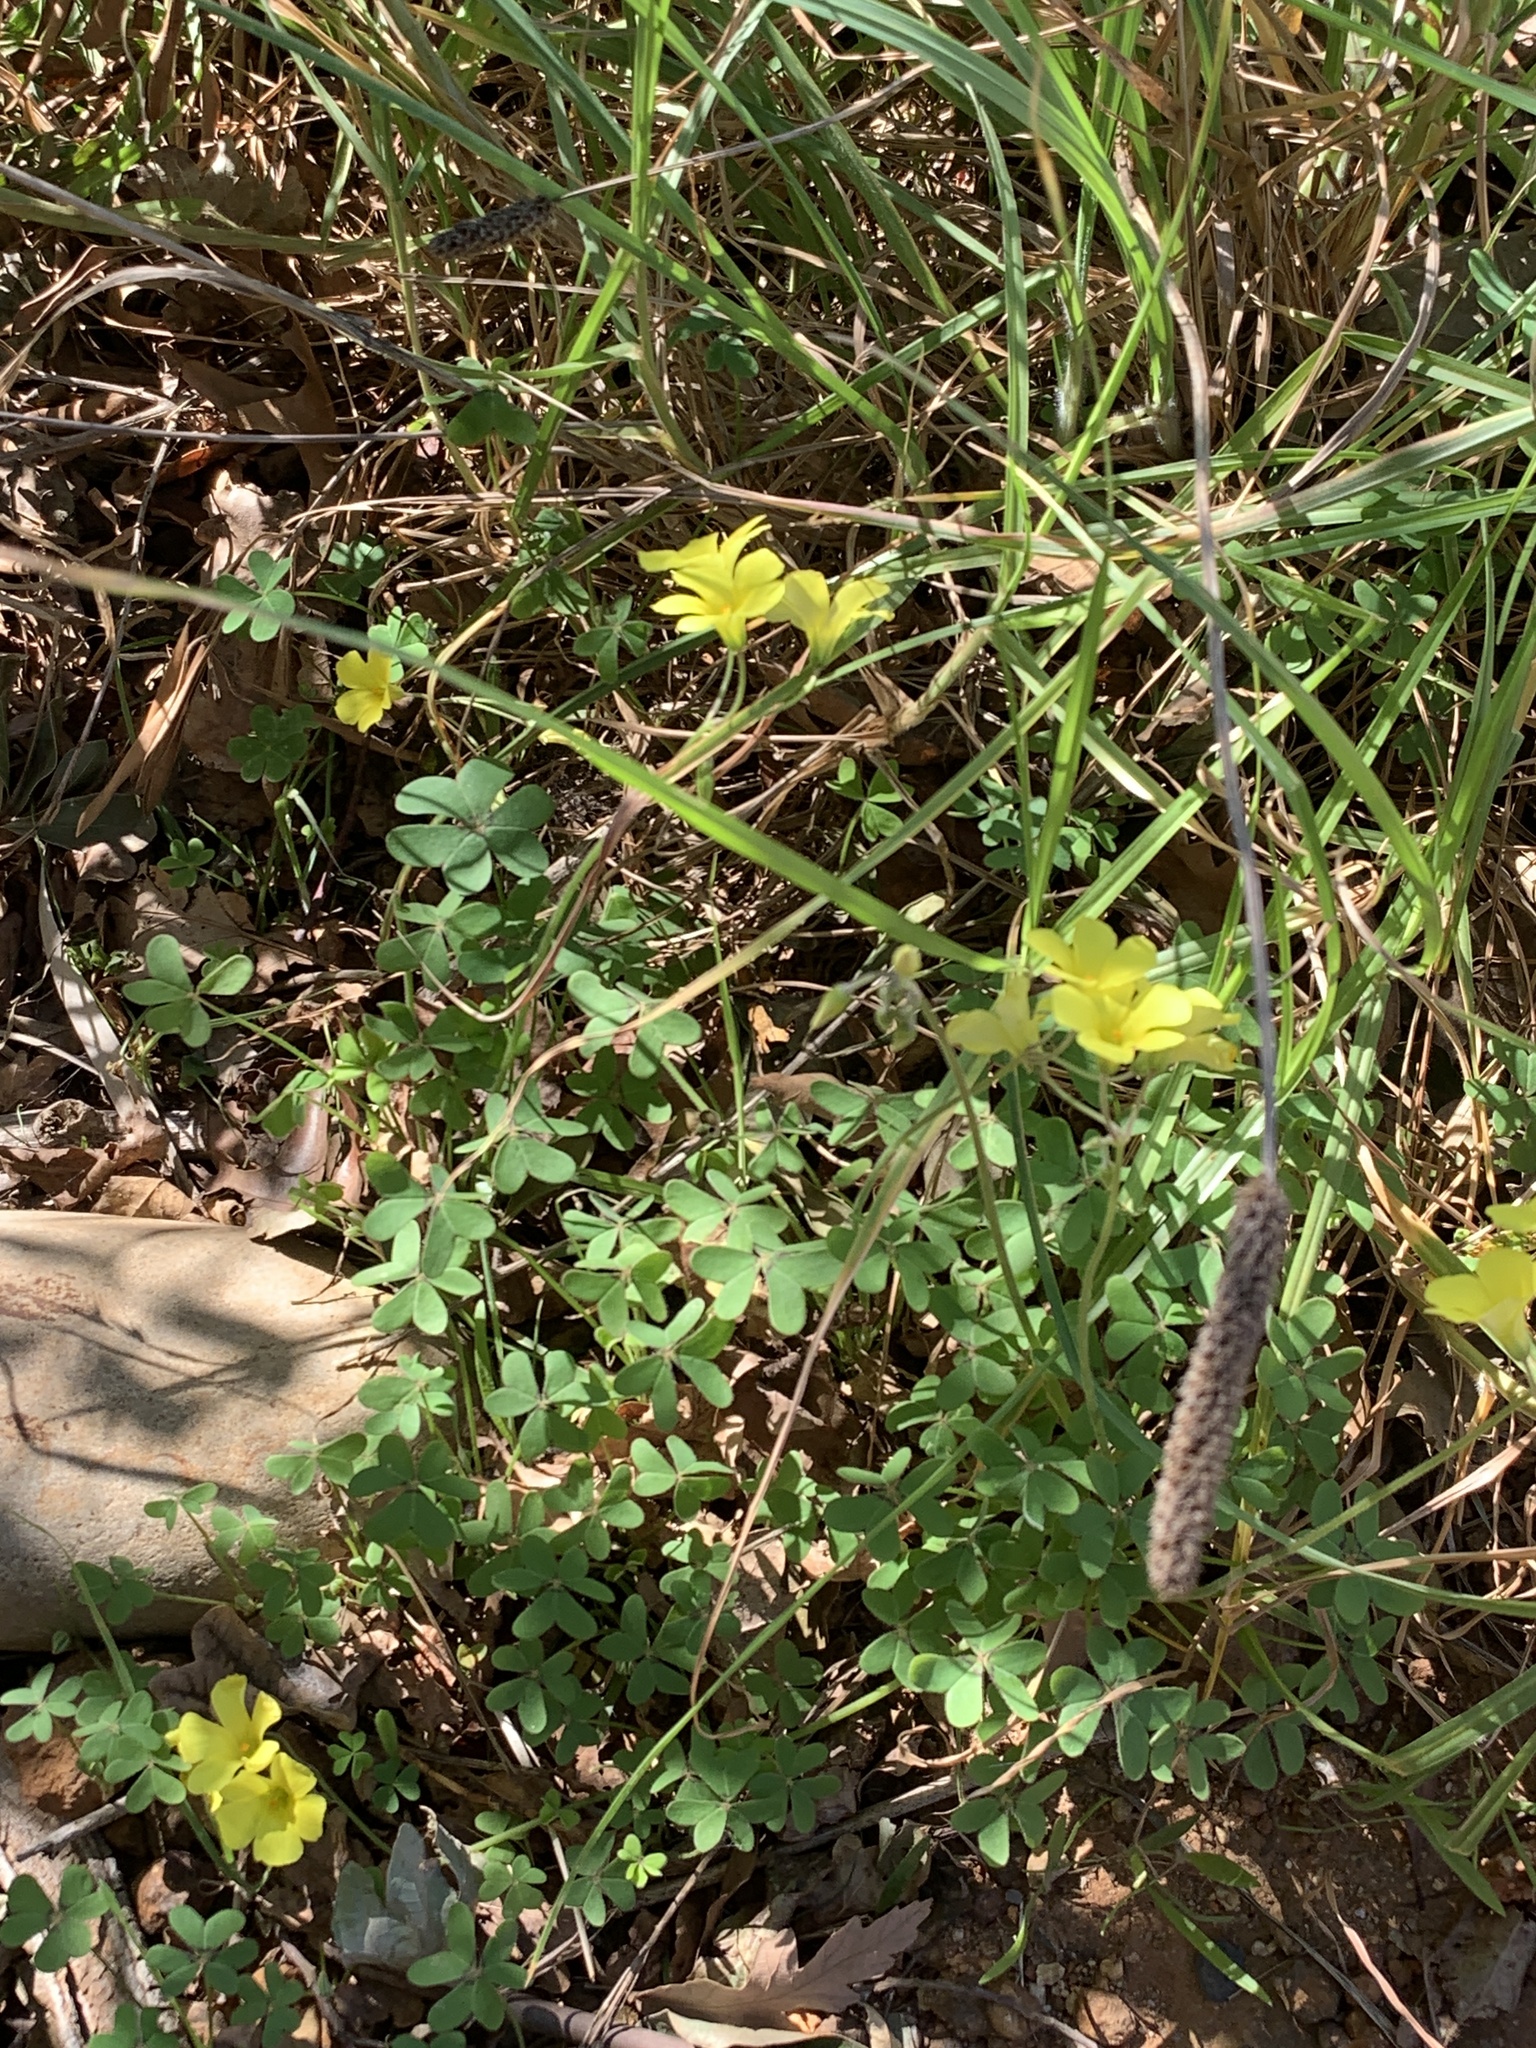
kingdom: Plantae
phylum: Tracheophyta
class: Magnoliopsida
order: Oxalidales
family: Oxalidaceae
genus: Oxalis
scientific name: Oxalis pes-caprae
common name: Bermuda-buttercup
